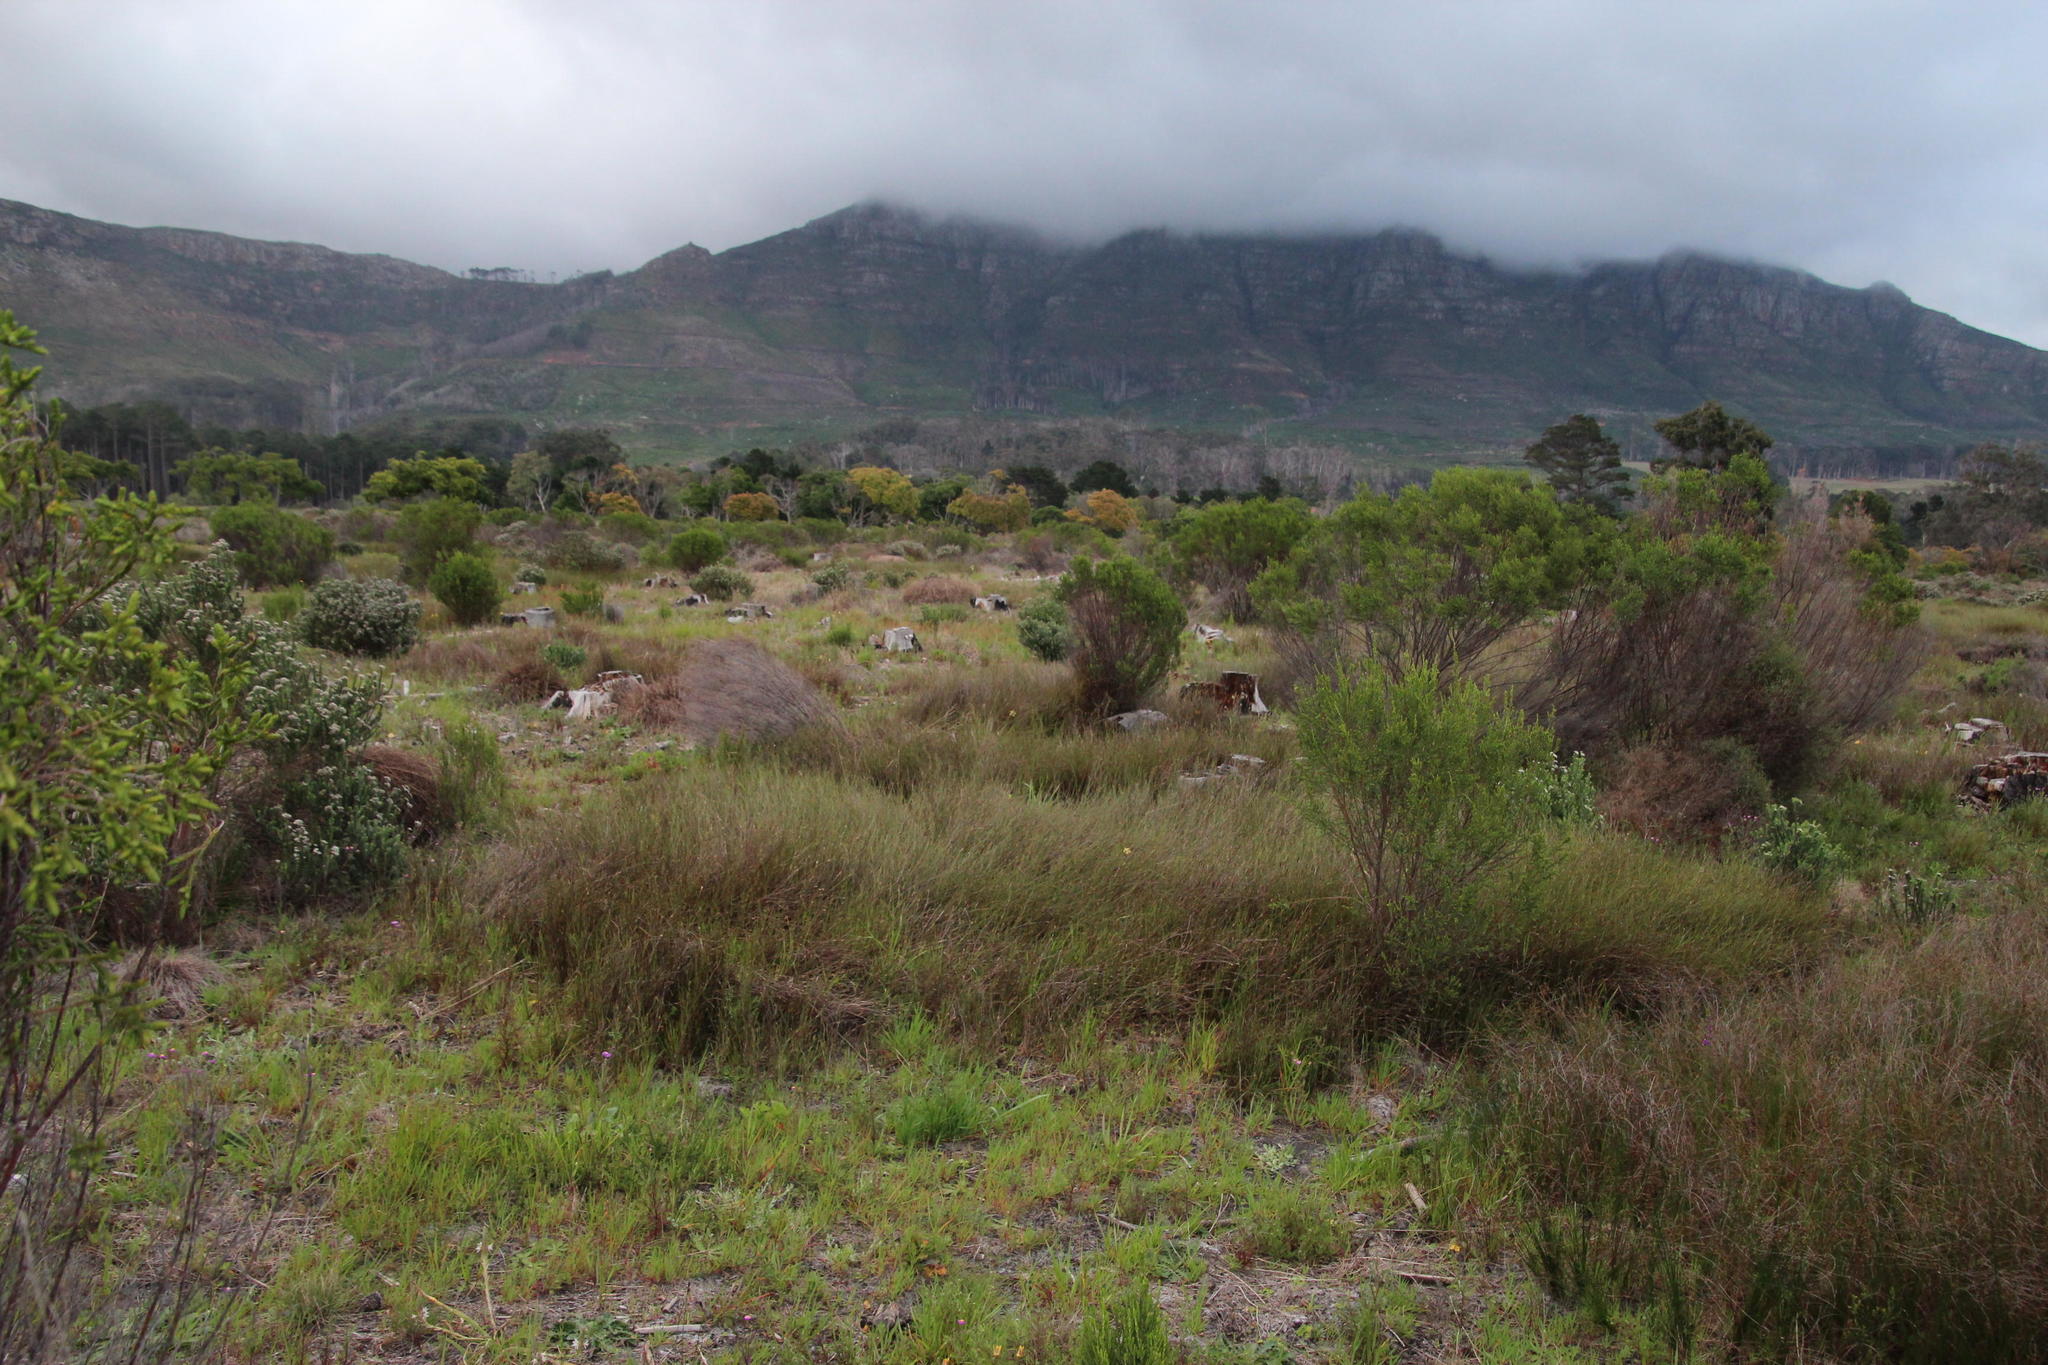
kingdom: Plantae
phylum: Tracheophyta
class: Liliopsida
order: Poales
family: Restionaceae
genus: Willdenowia
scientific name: Willdenowia sulcata
